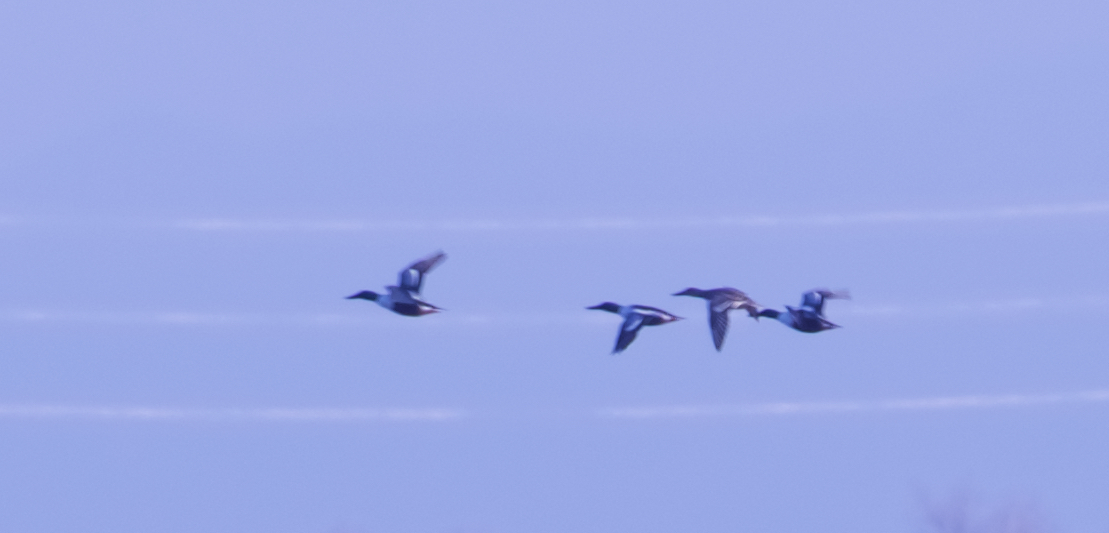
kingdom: Animalia
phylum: Chordata
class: Aves
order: Anseriformes
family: Anatidae
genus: Spatula
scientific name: Spatula clypeata
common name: Northern shoveler
